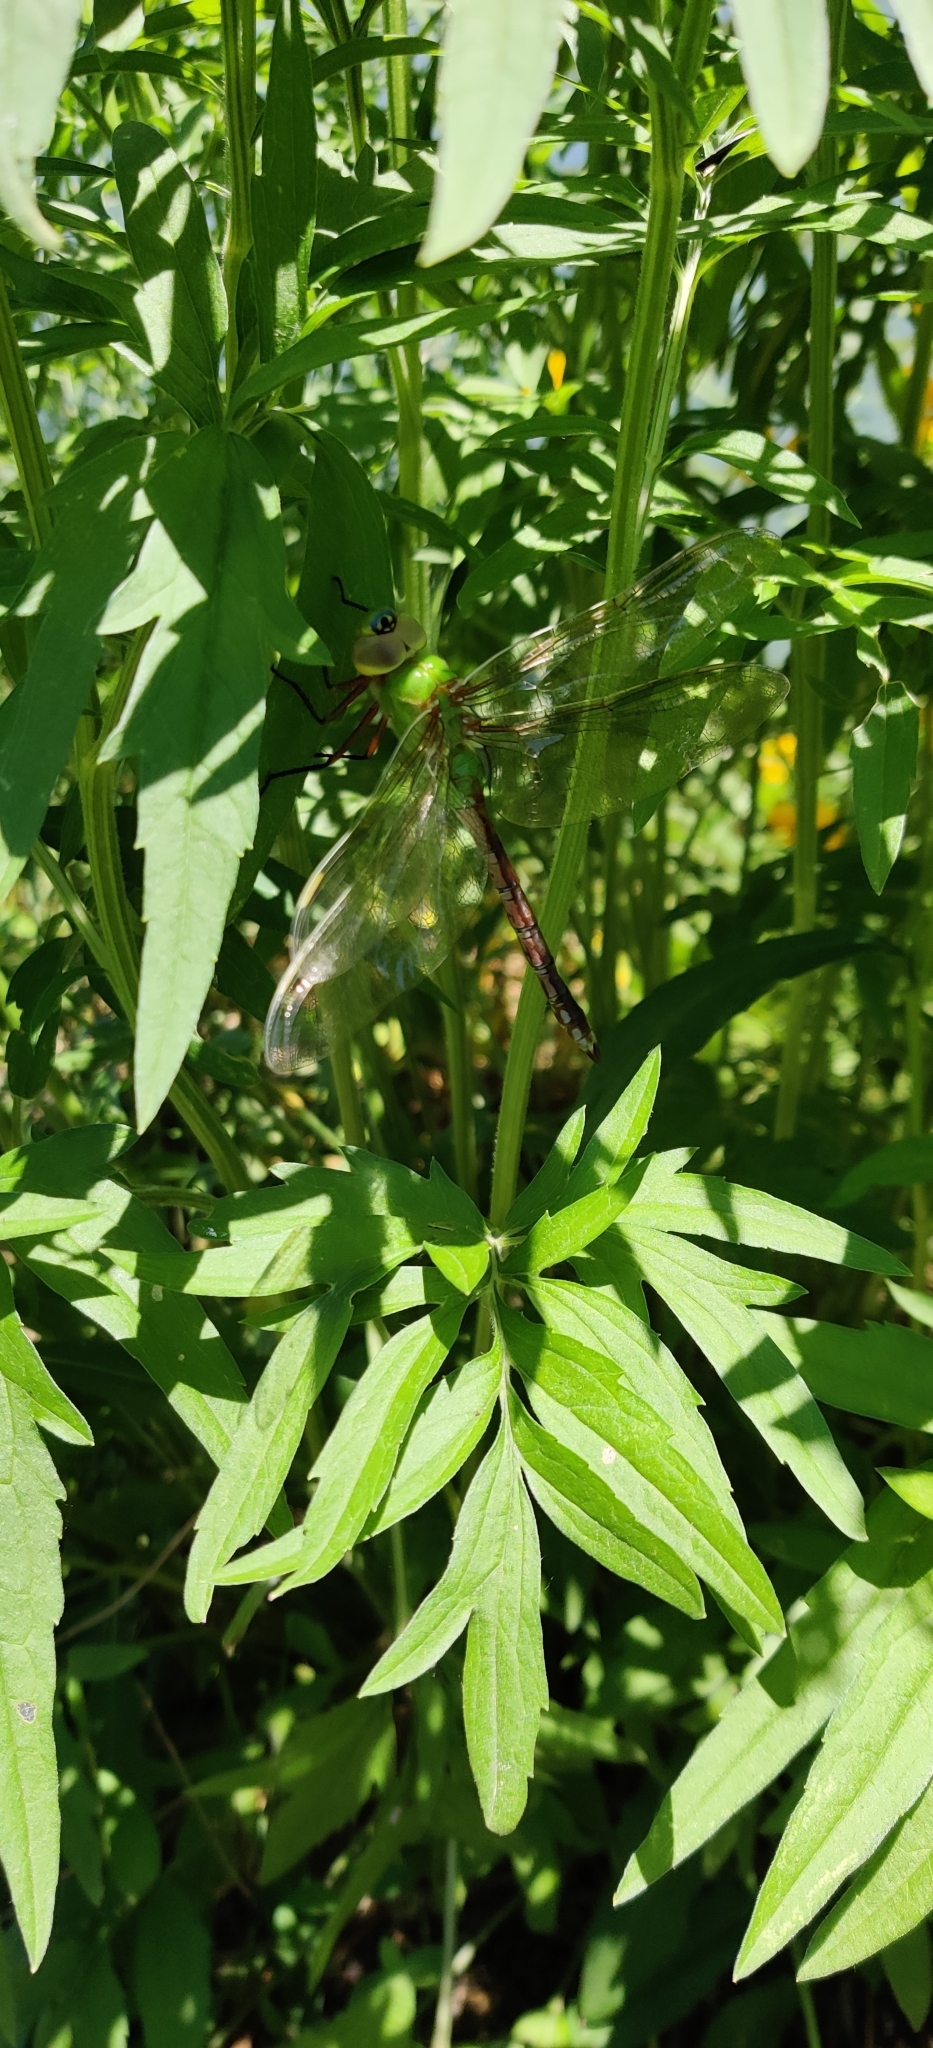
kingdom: Animalia
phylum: Arthropoda
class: Insecta
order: Odonata
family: Aeshnidae
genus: Anax
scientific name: Anax junius
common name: Common green darner
